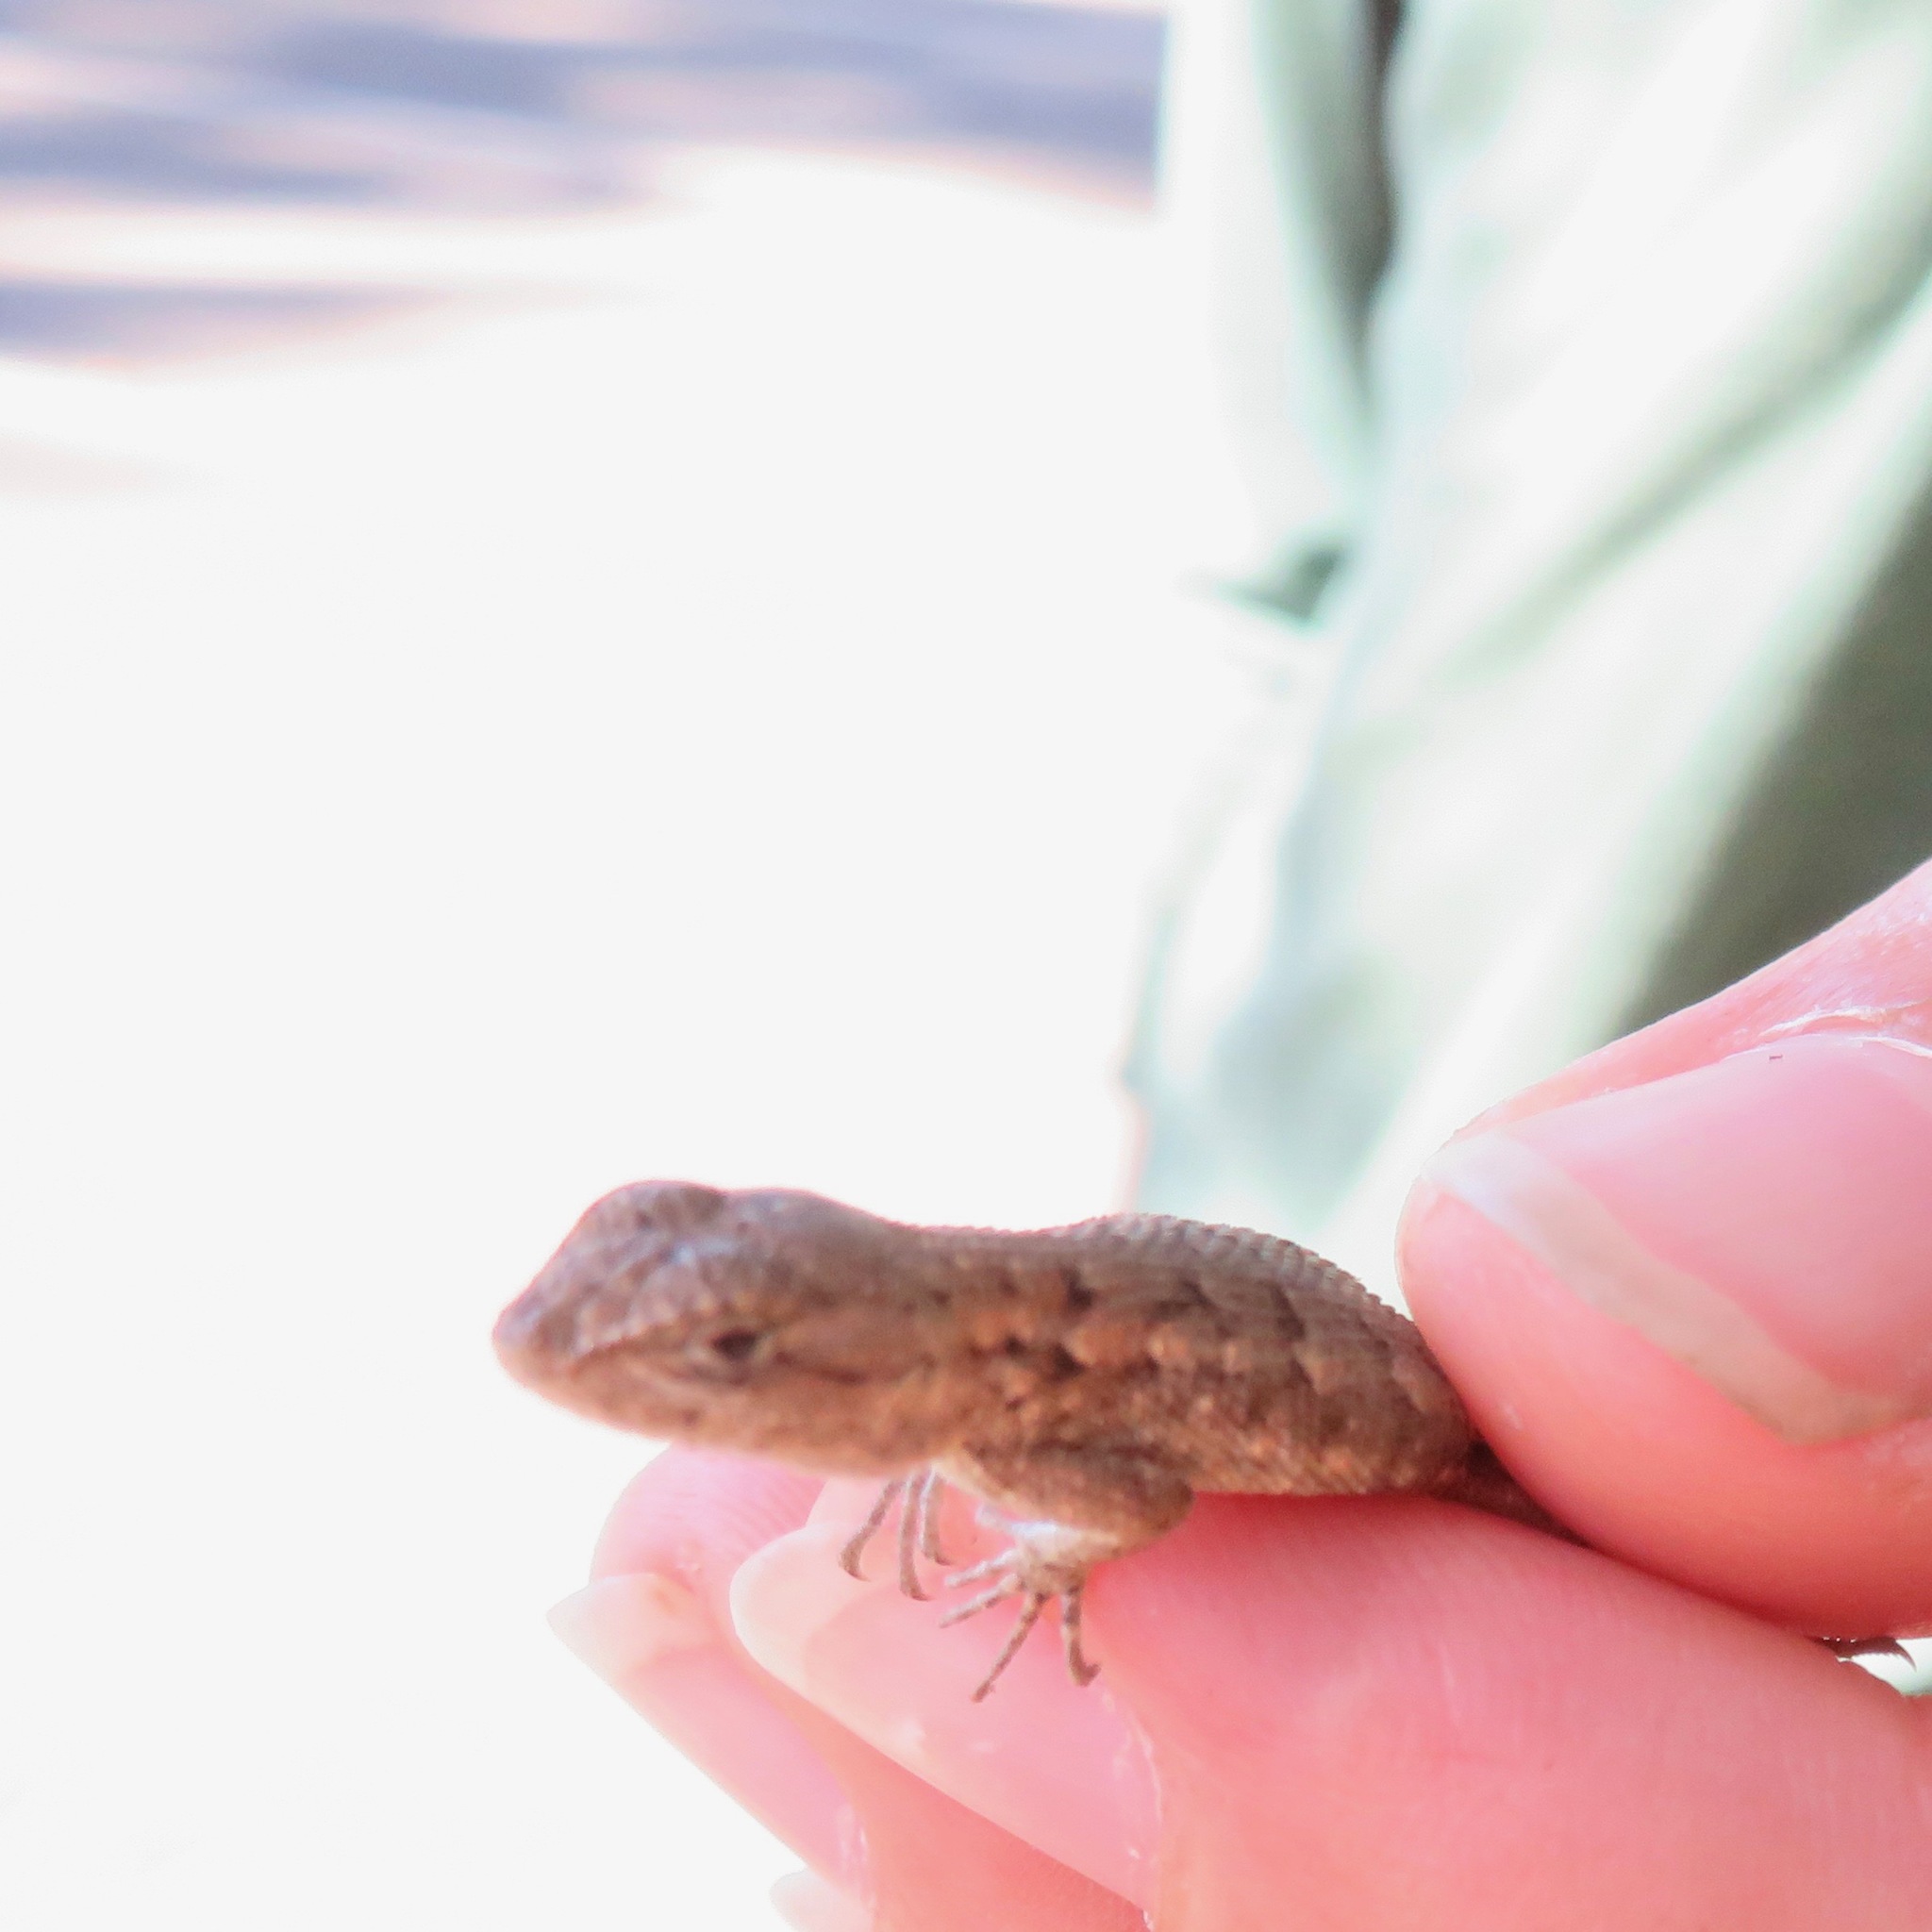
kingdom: Animalia
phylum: Chordata
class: Squamata
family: Phrynosomatidae
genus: Sceloporus
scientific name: Sceloporus occidentalis
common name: Western fence lizard
